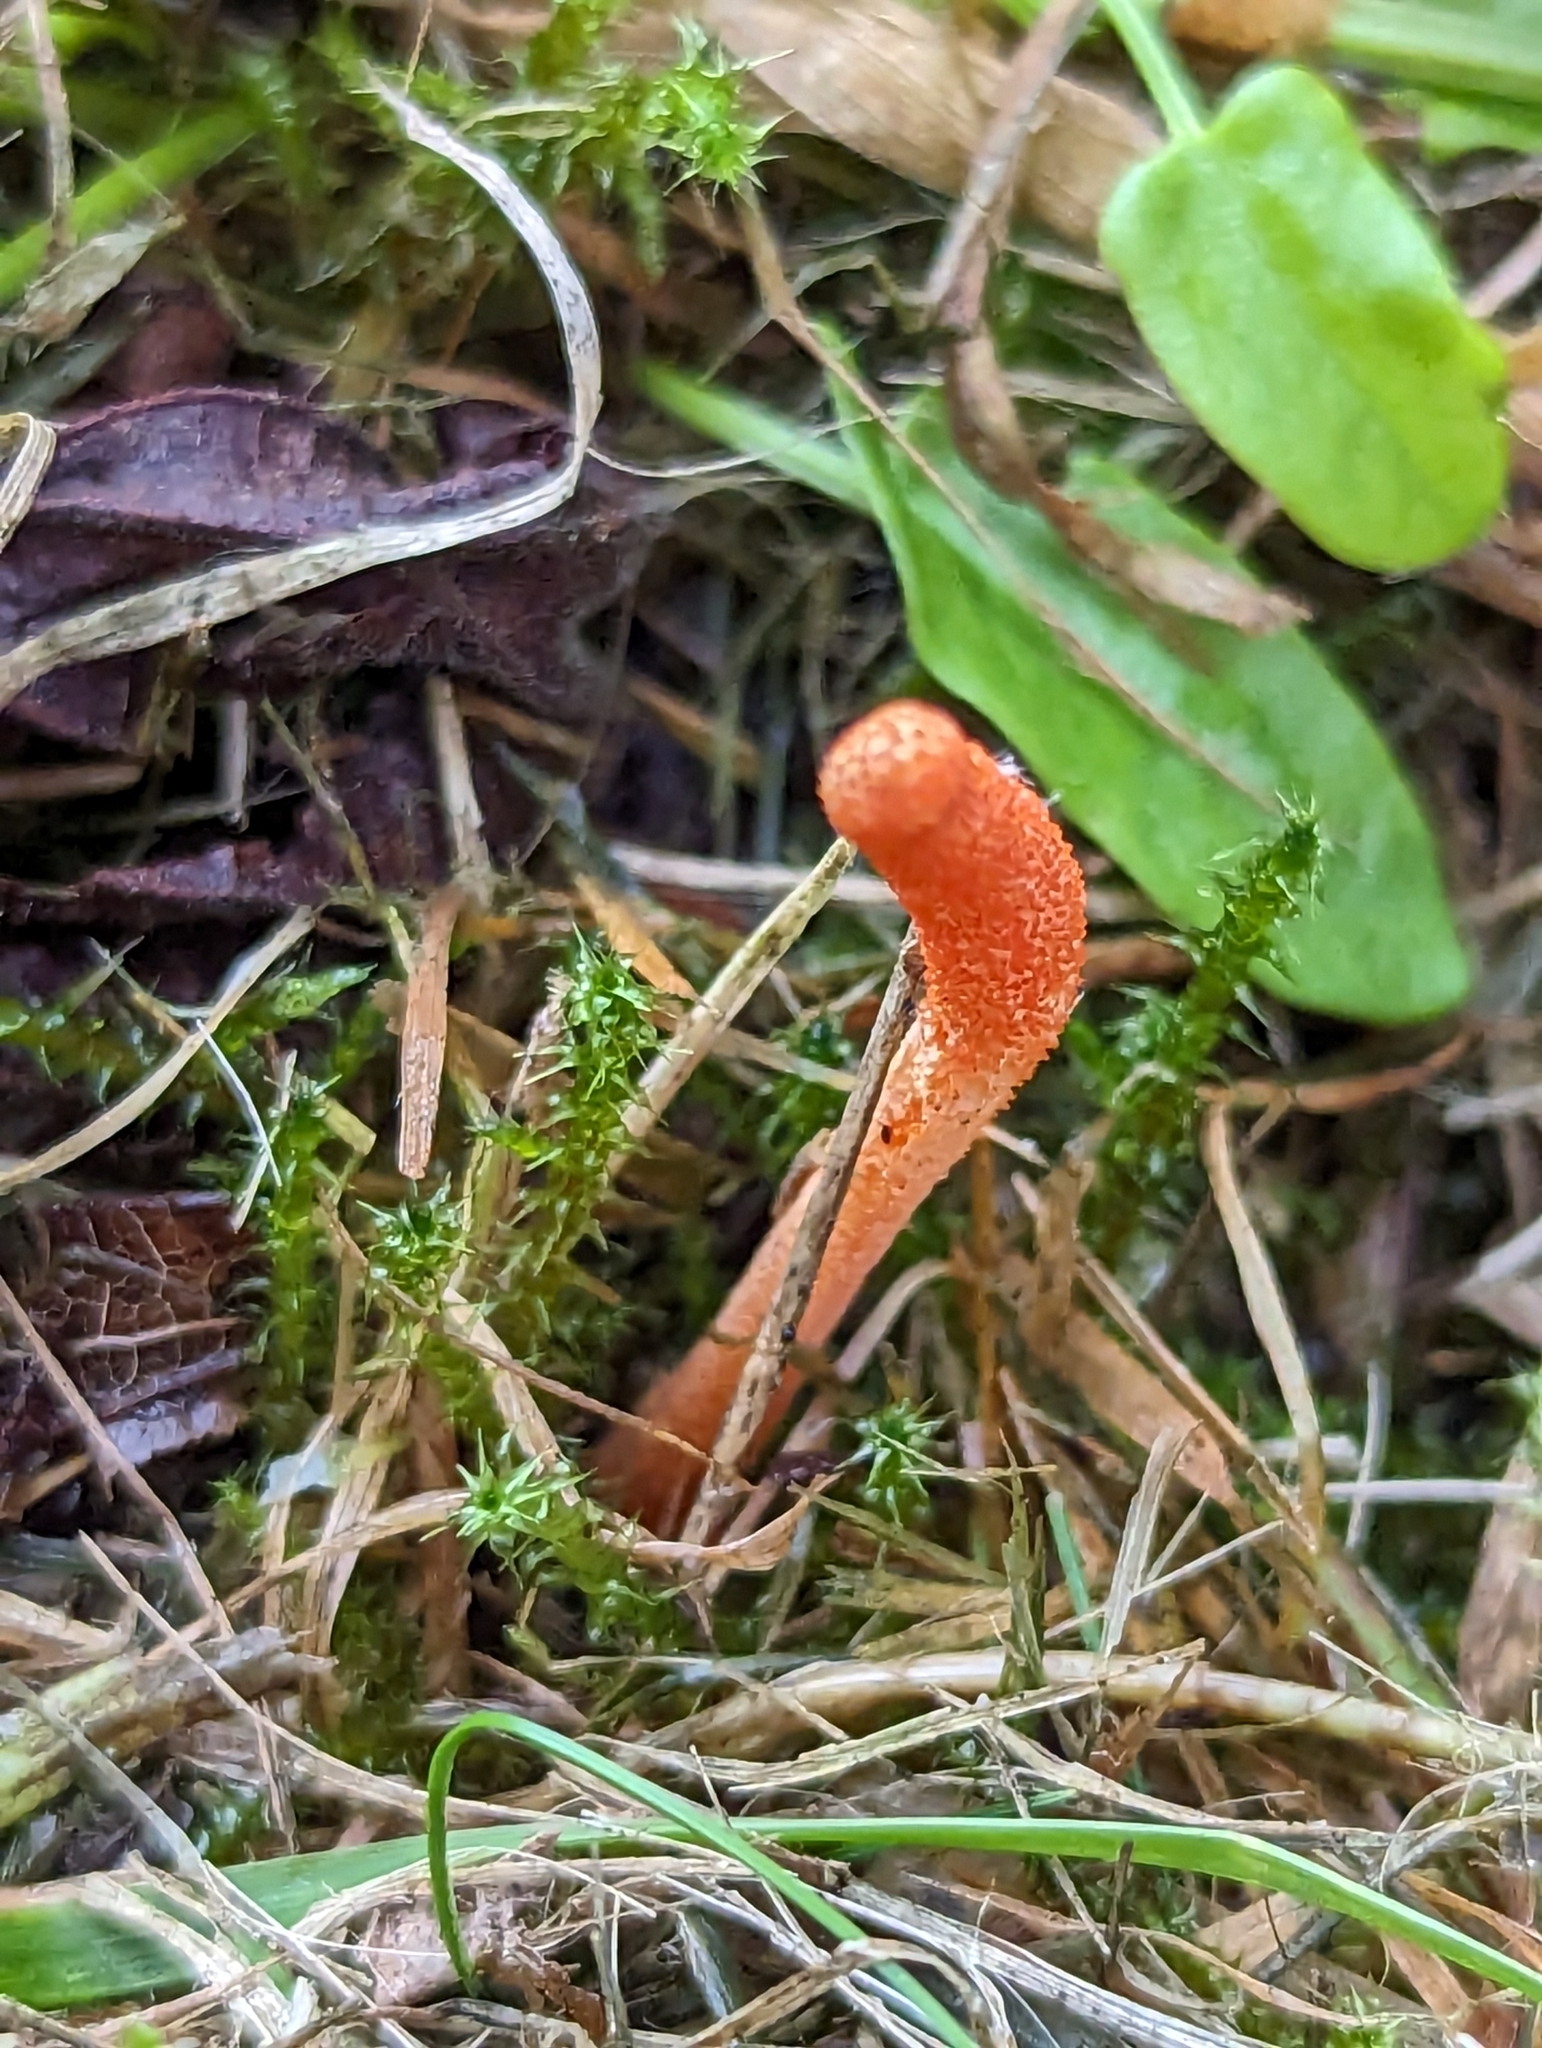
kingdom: Fungi
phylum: Ascomycota
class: Sordariomycetes
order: Hypocreales
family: Cordycipitaceae
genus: Cordyceps
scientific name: Cordyceps militaris
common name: Scarlet caterpillar fungus
